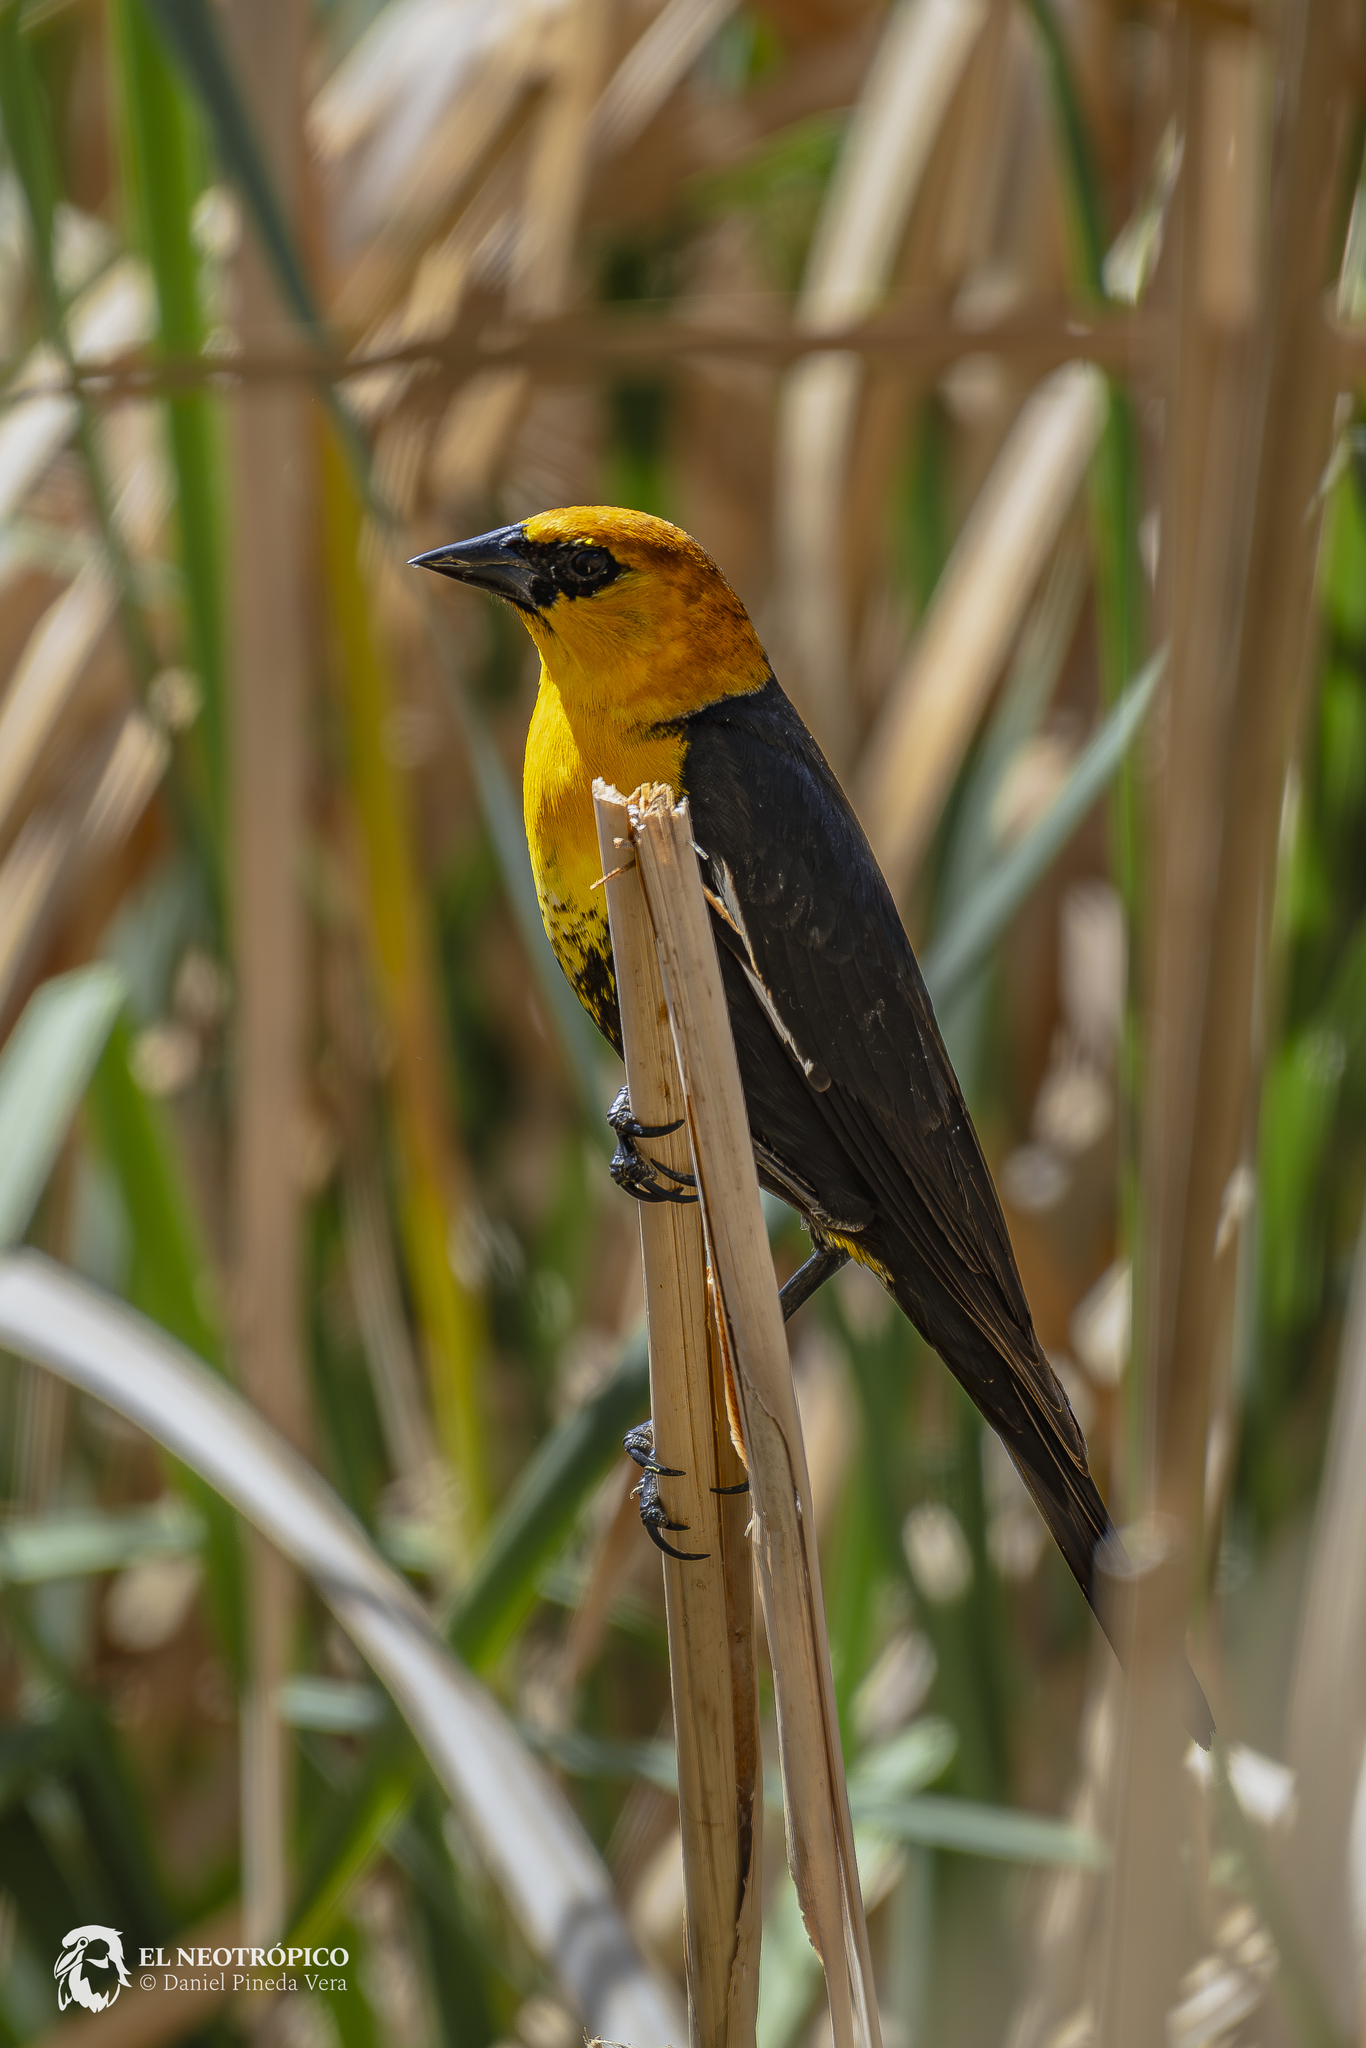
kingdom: Animalia
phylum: Chordata
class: Aves
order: Passeriformes
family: Icteridae
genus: Xanthocephalus
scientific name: Xanthocephalus xanthocephalus
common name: Yellow-headed blackbird
